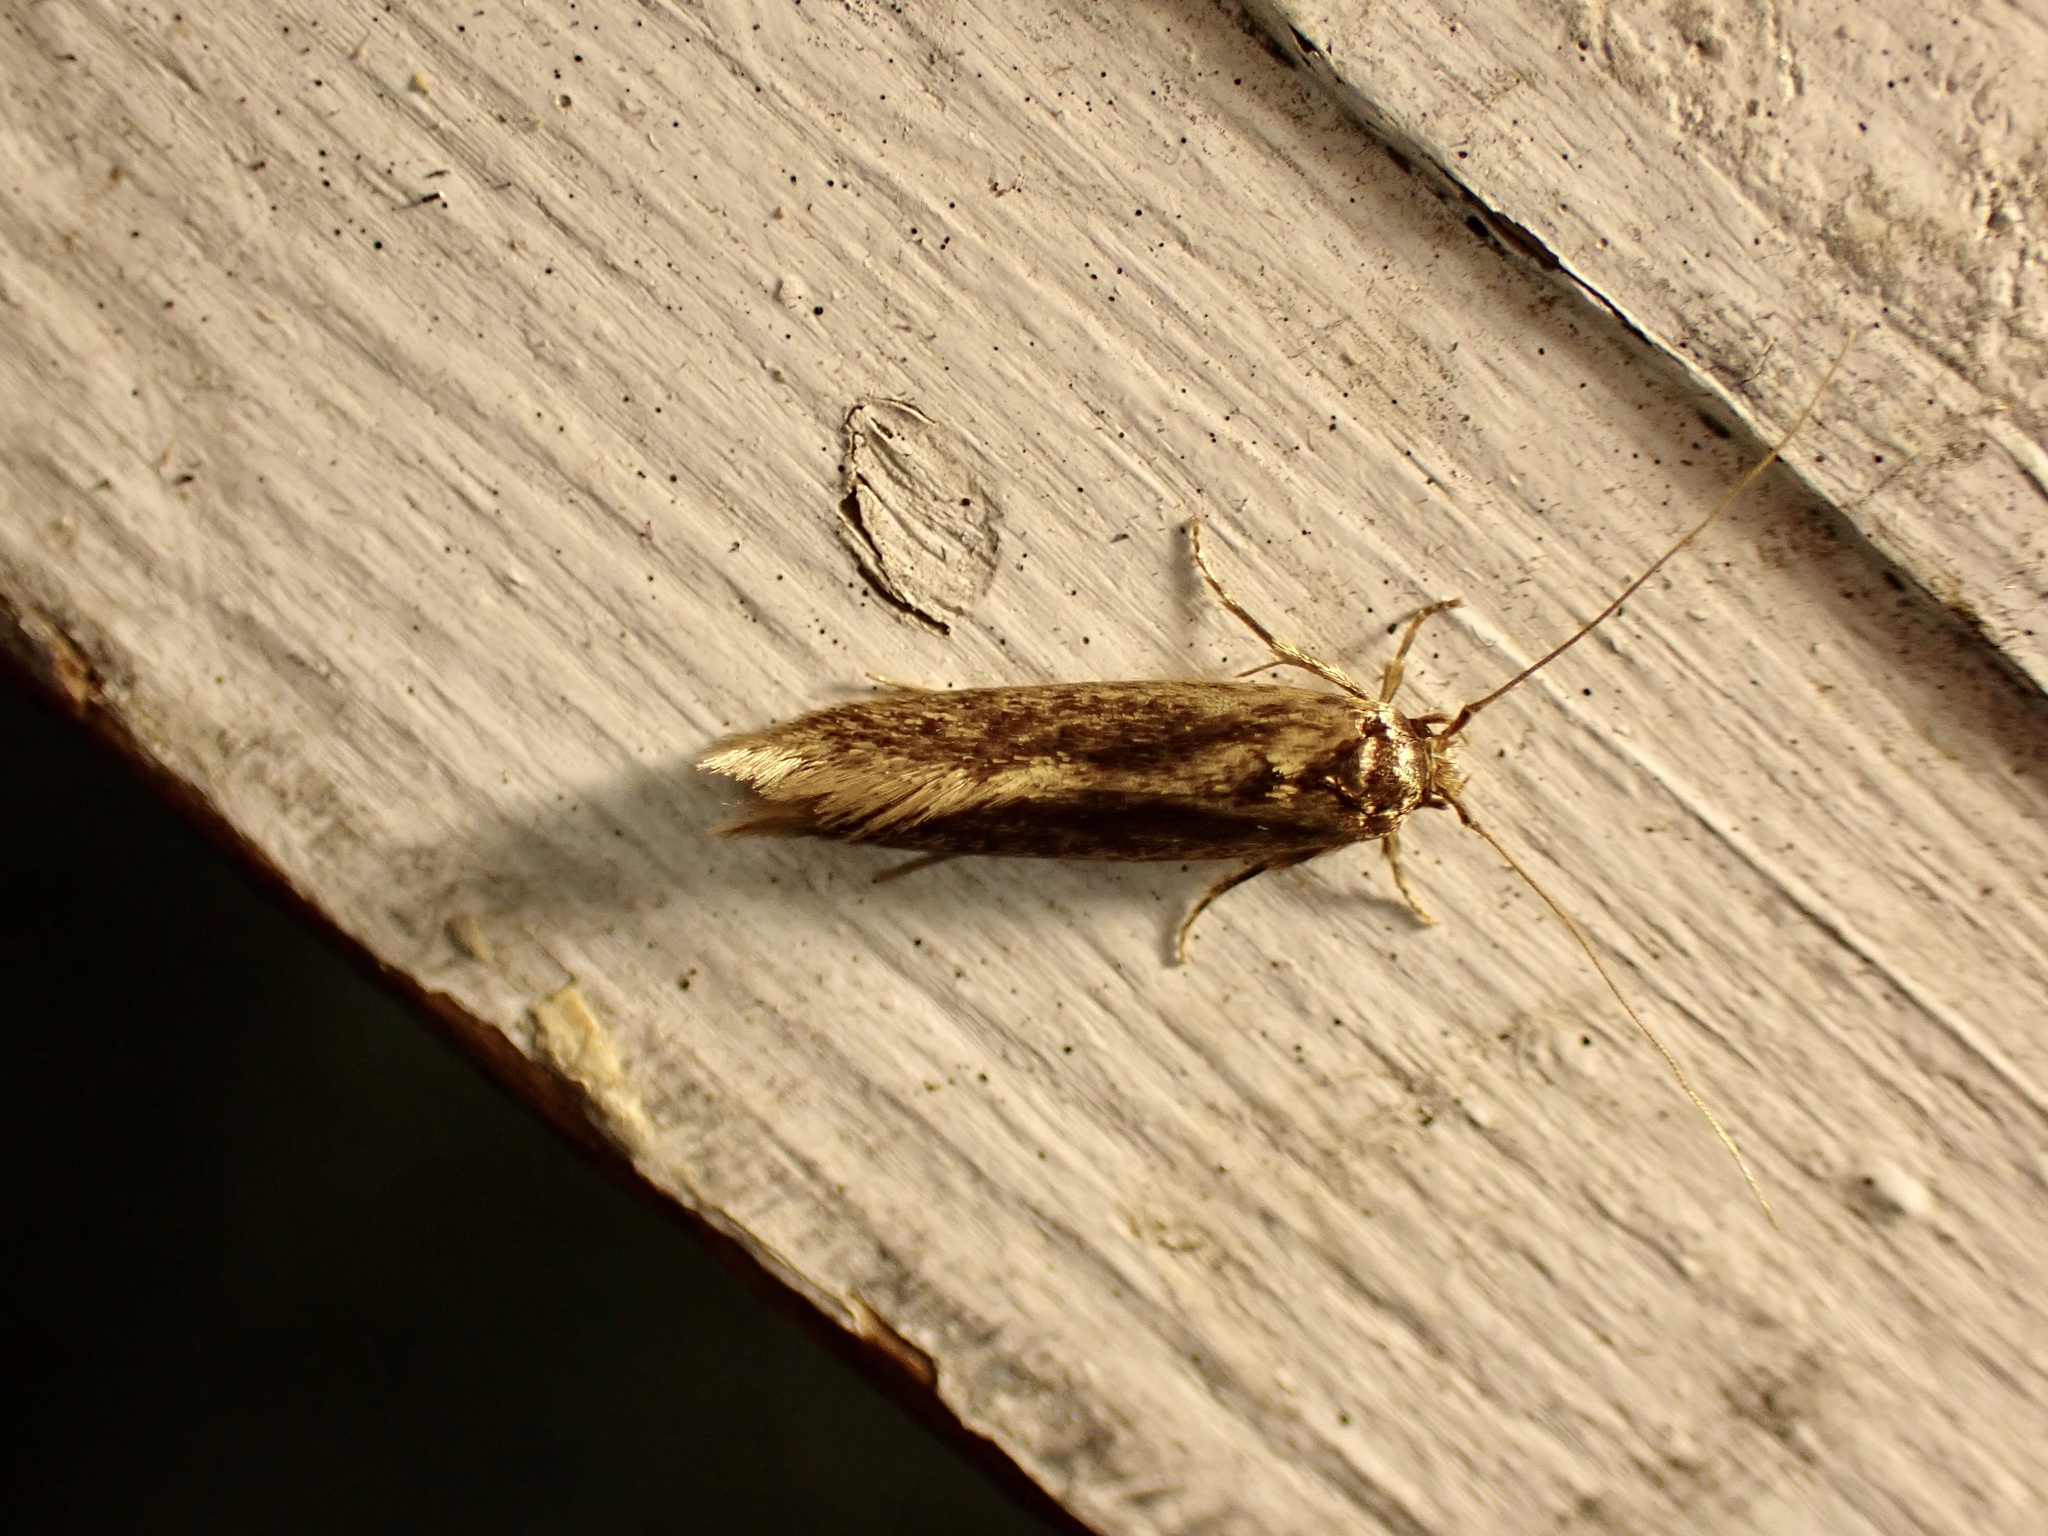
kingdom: Animalia
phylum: Arthropoda
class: Insecta
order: Lepidoptera
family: Tineidae
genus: Opogona
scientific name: Opogona omoscopa
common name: Moth
